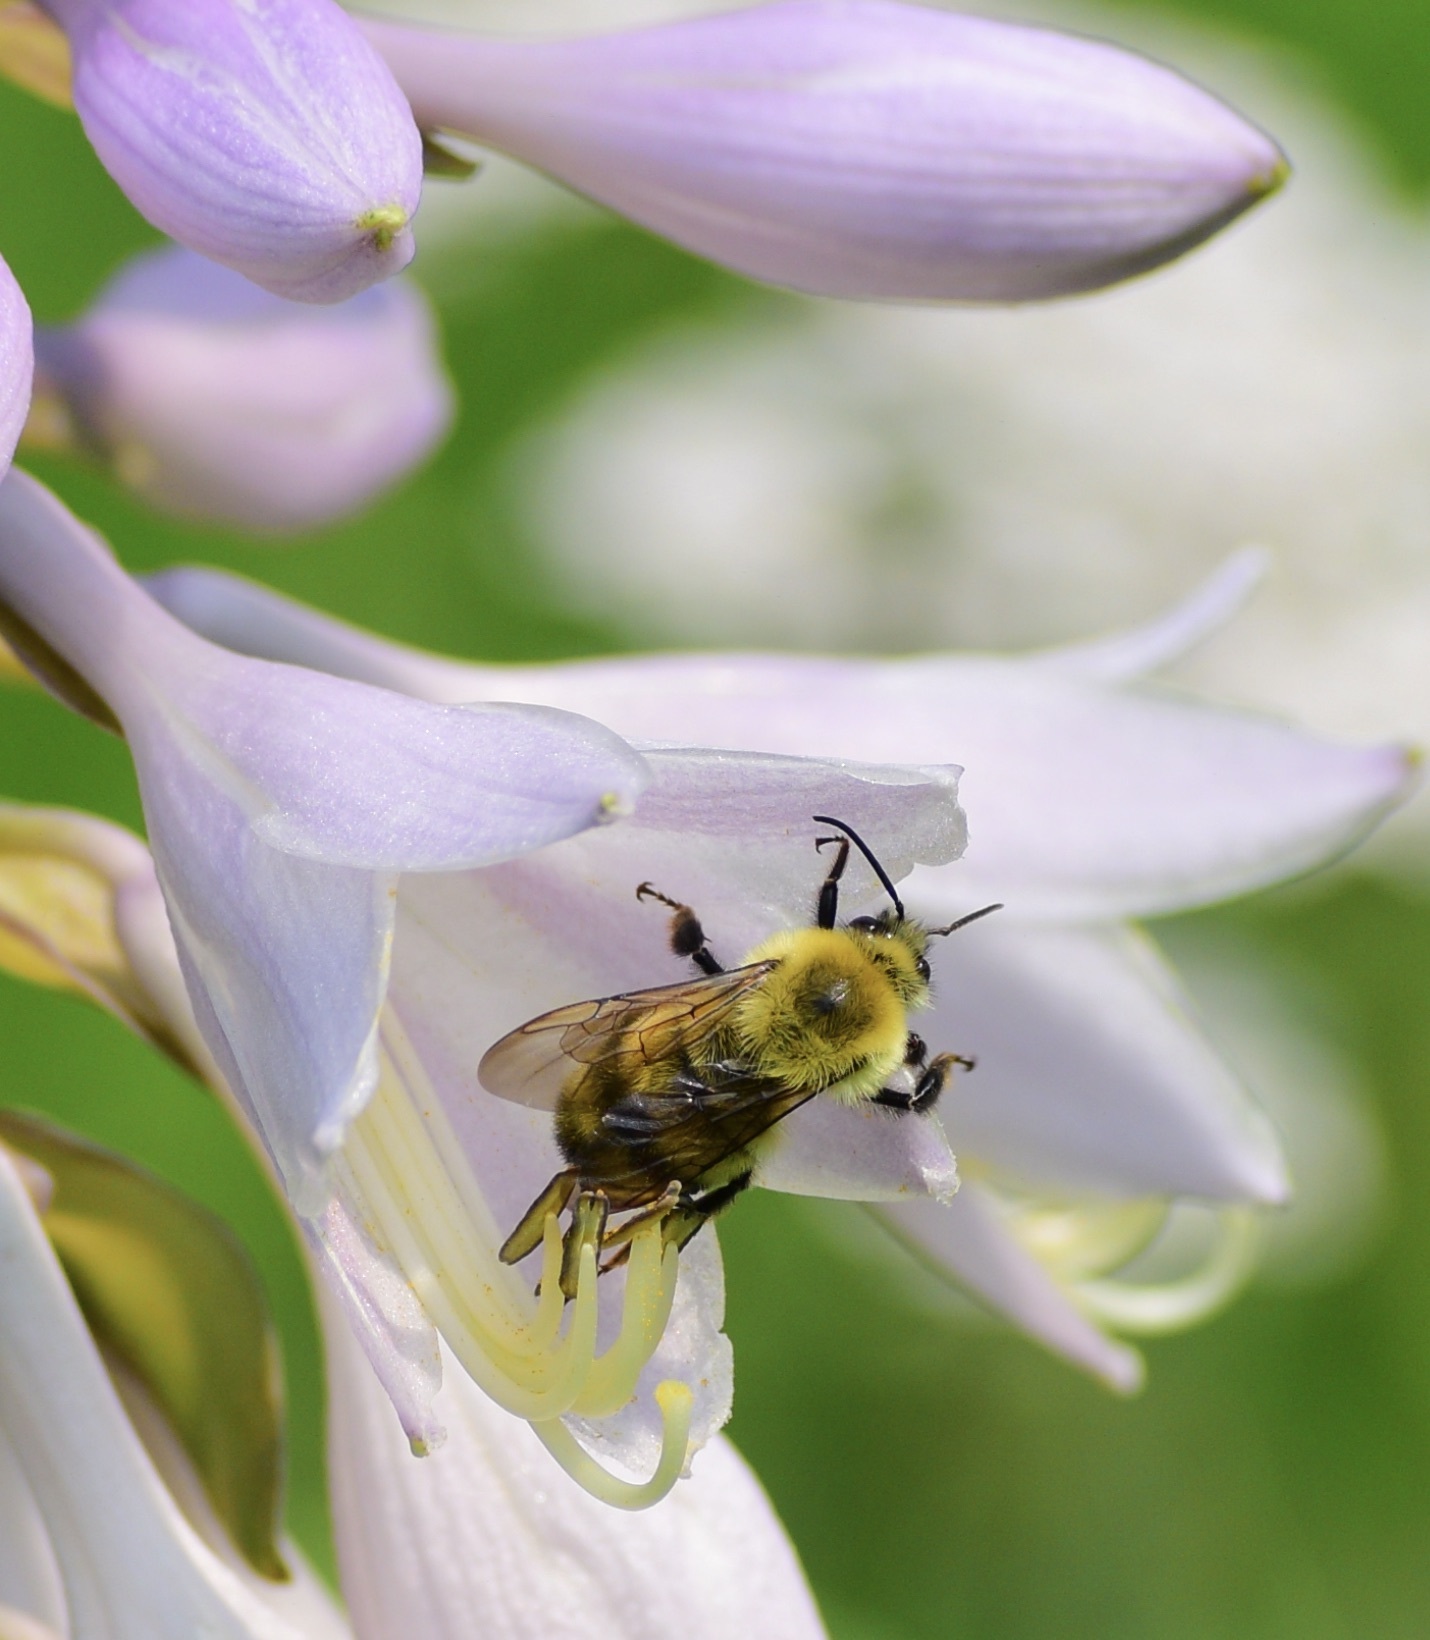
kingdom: Animalia
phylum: Arthropoda
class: Insecta
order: Hymenoptera
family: Apidae
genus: Bombus
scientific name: Bombus bimaculatus
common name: Two-spotted bumble bee
